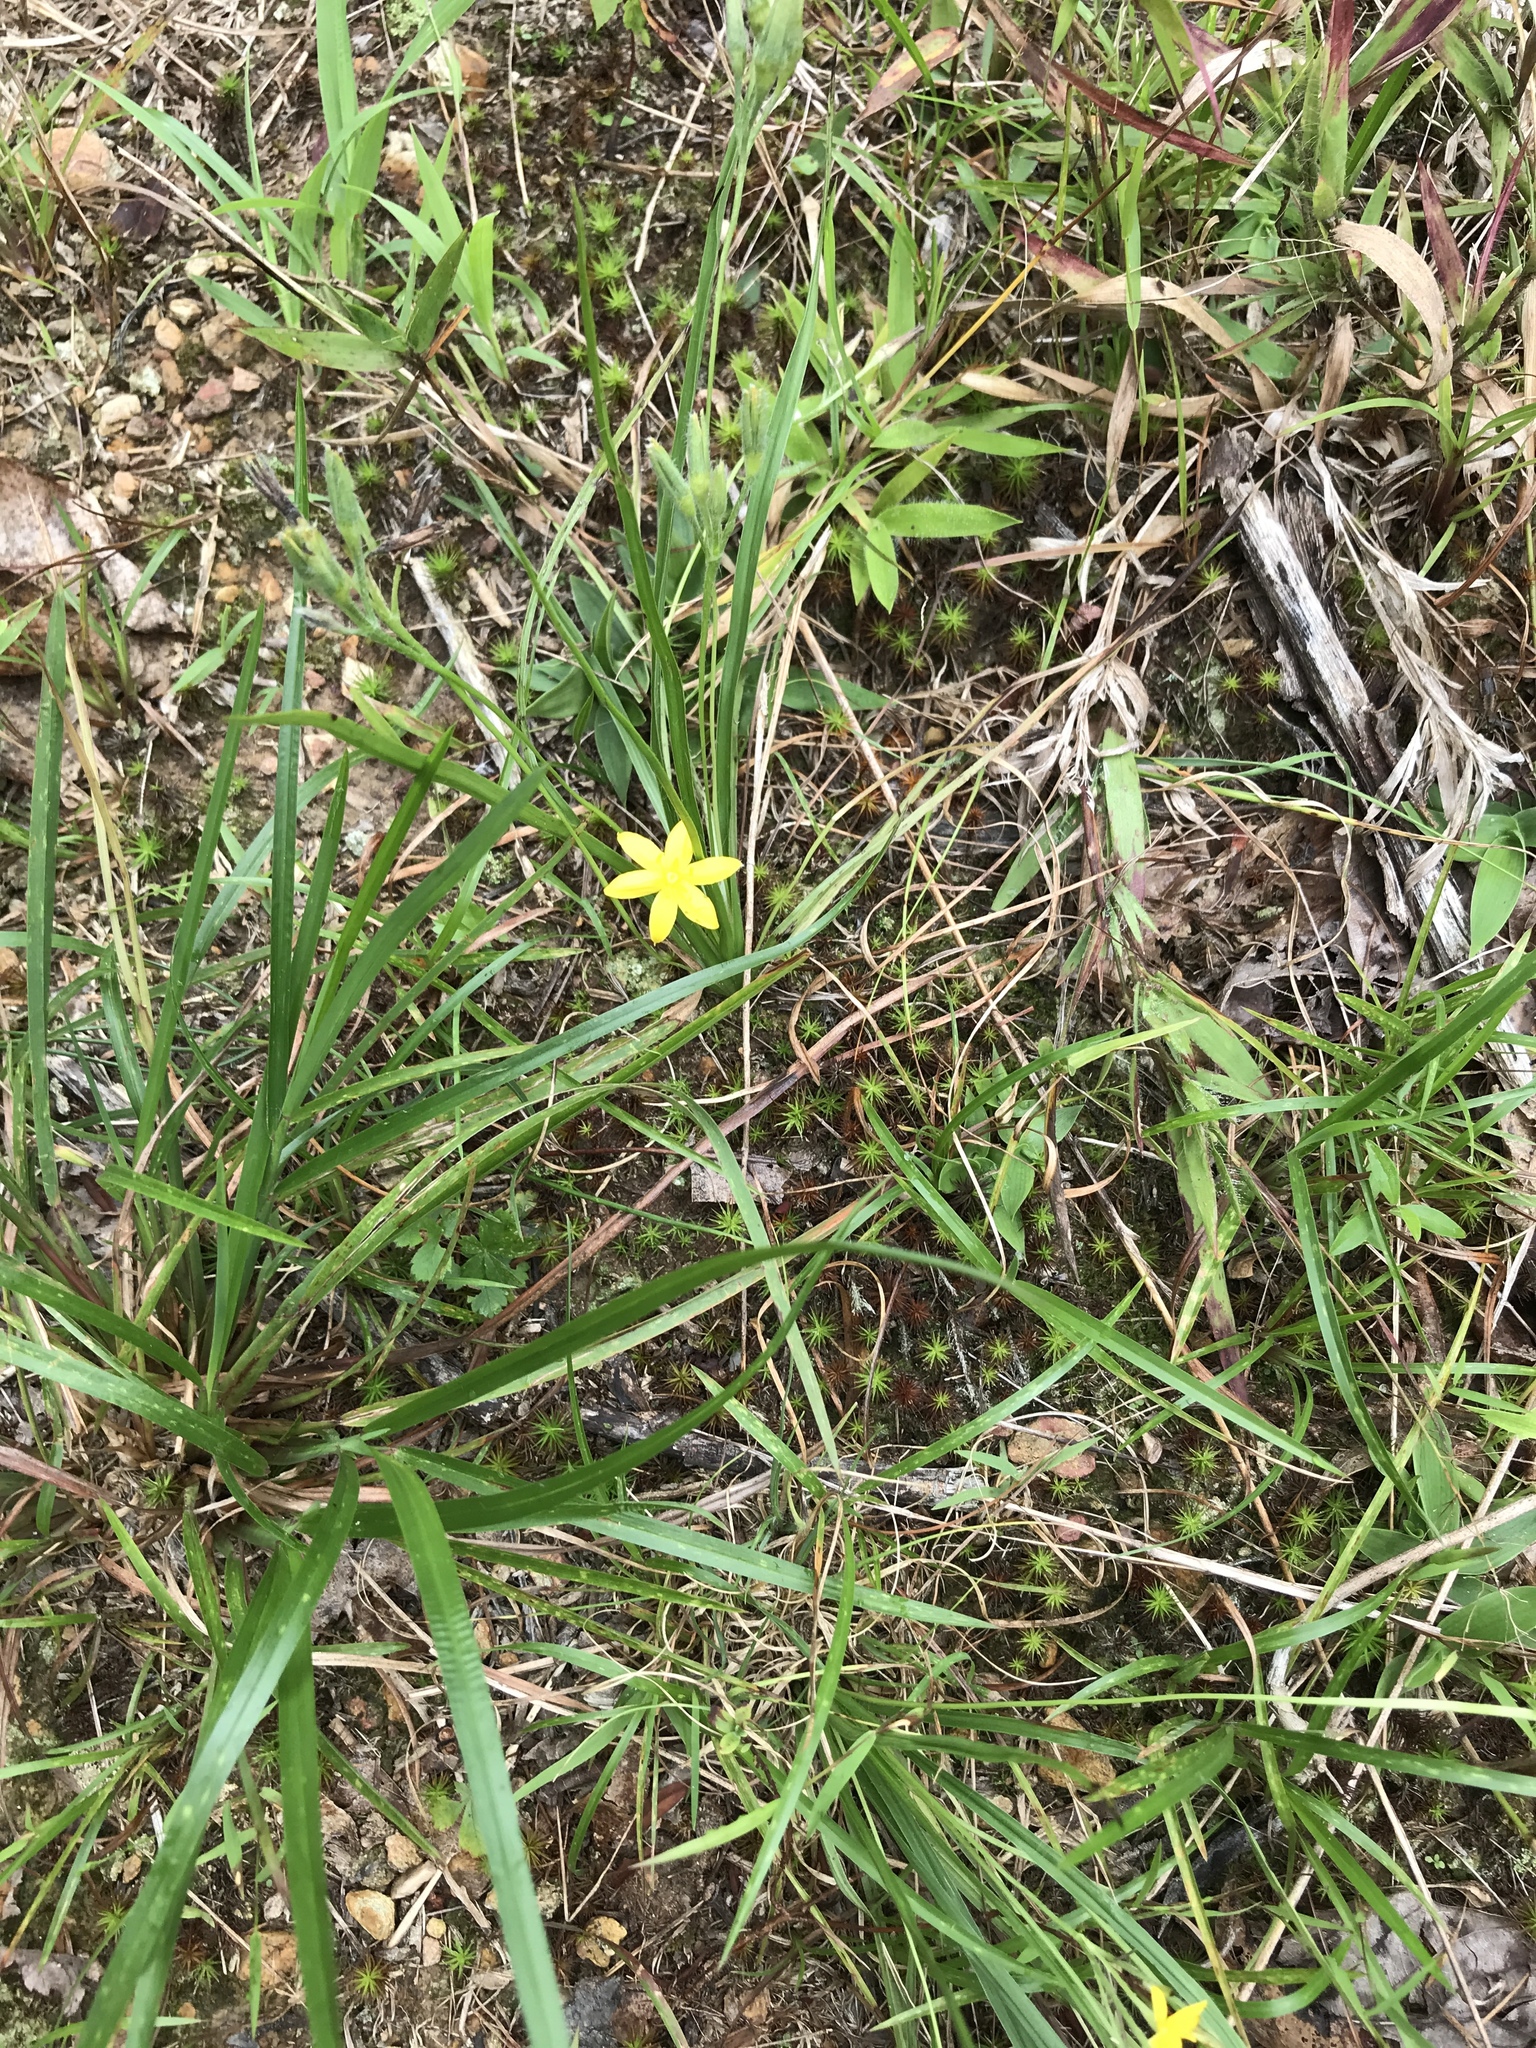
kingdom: Plantae
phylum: Tracheophyta
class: Liliopsida
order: Asparagales
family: Hypoxidaceae
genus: Hypoxis
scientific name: Hypoxis hirsuta
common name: Common goldstar
